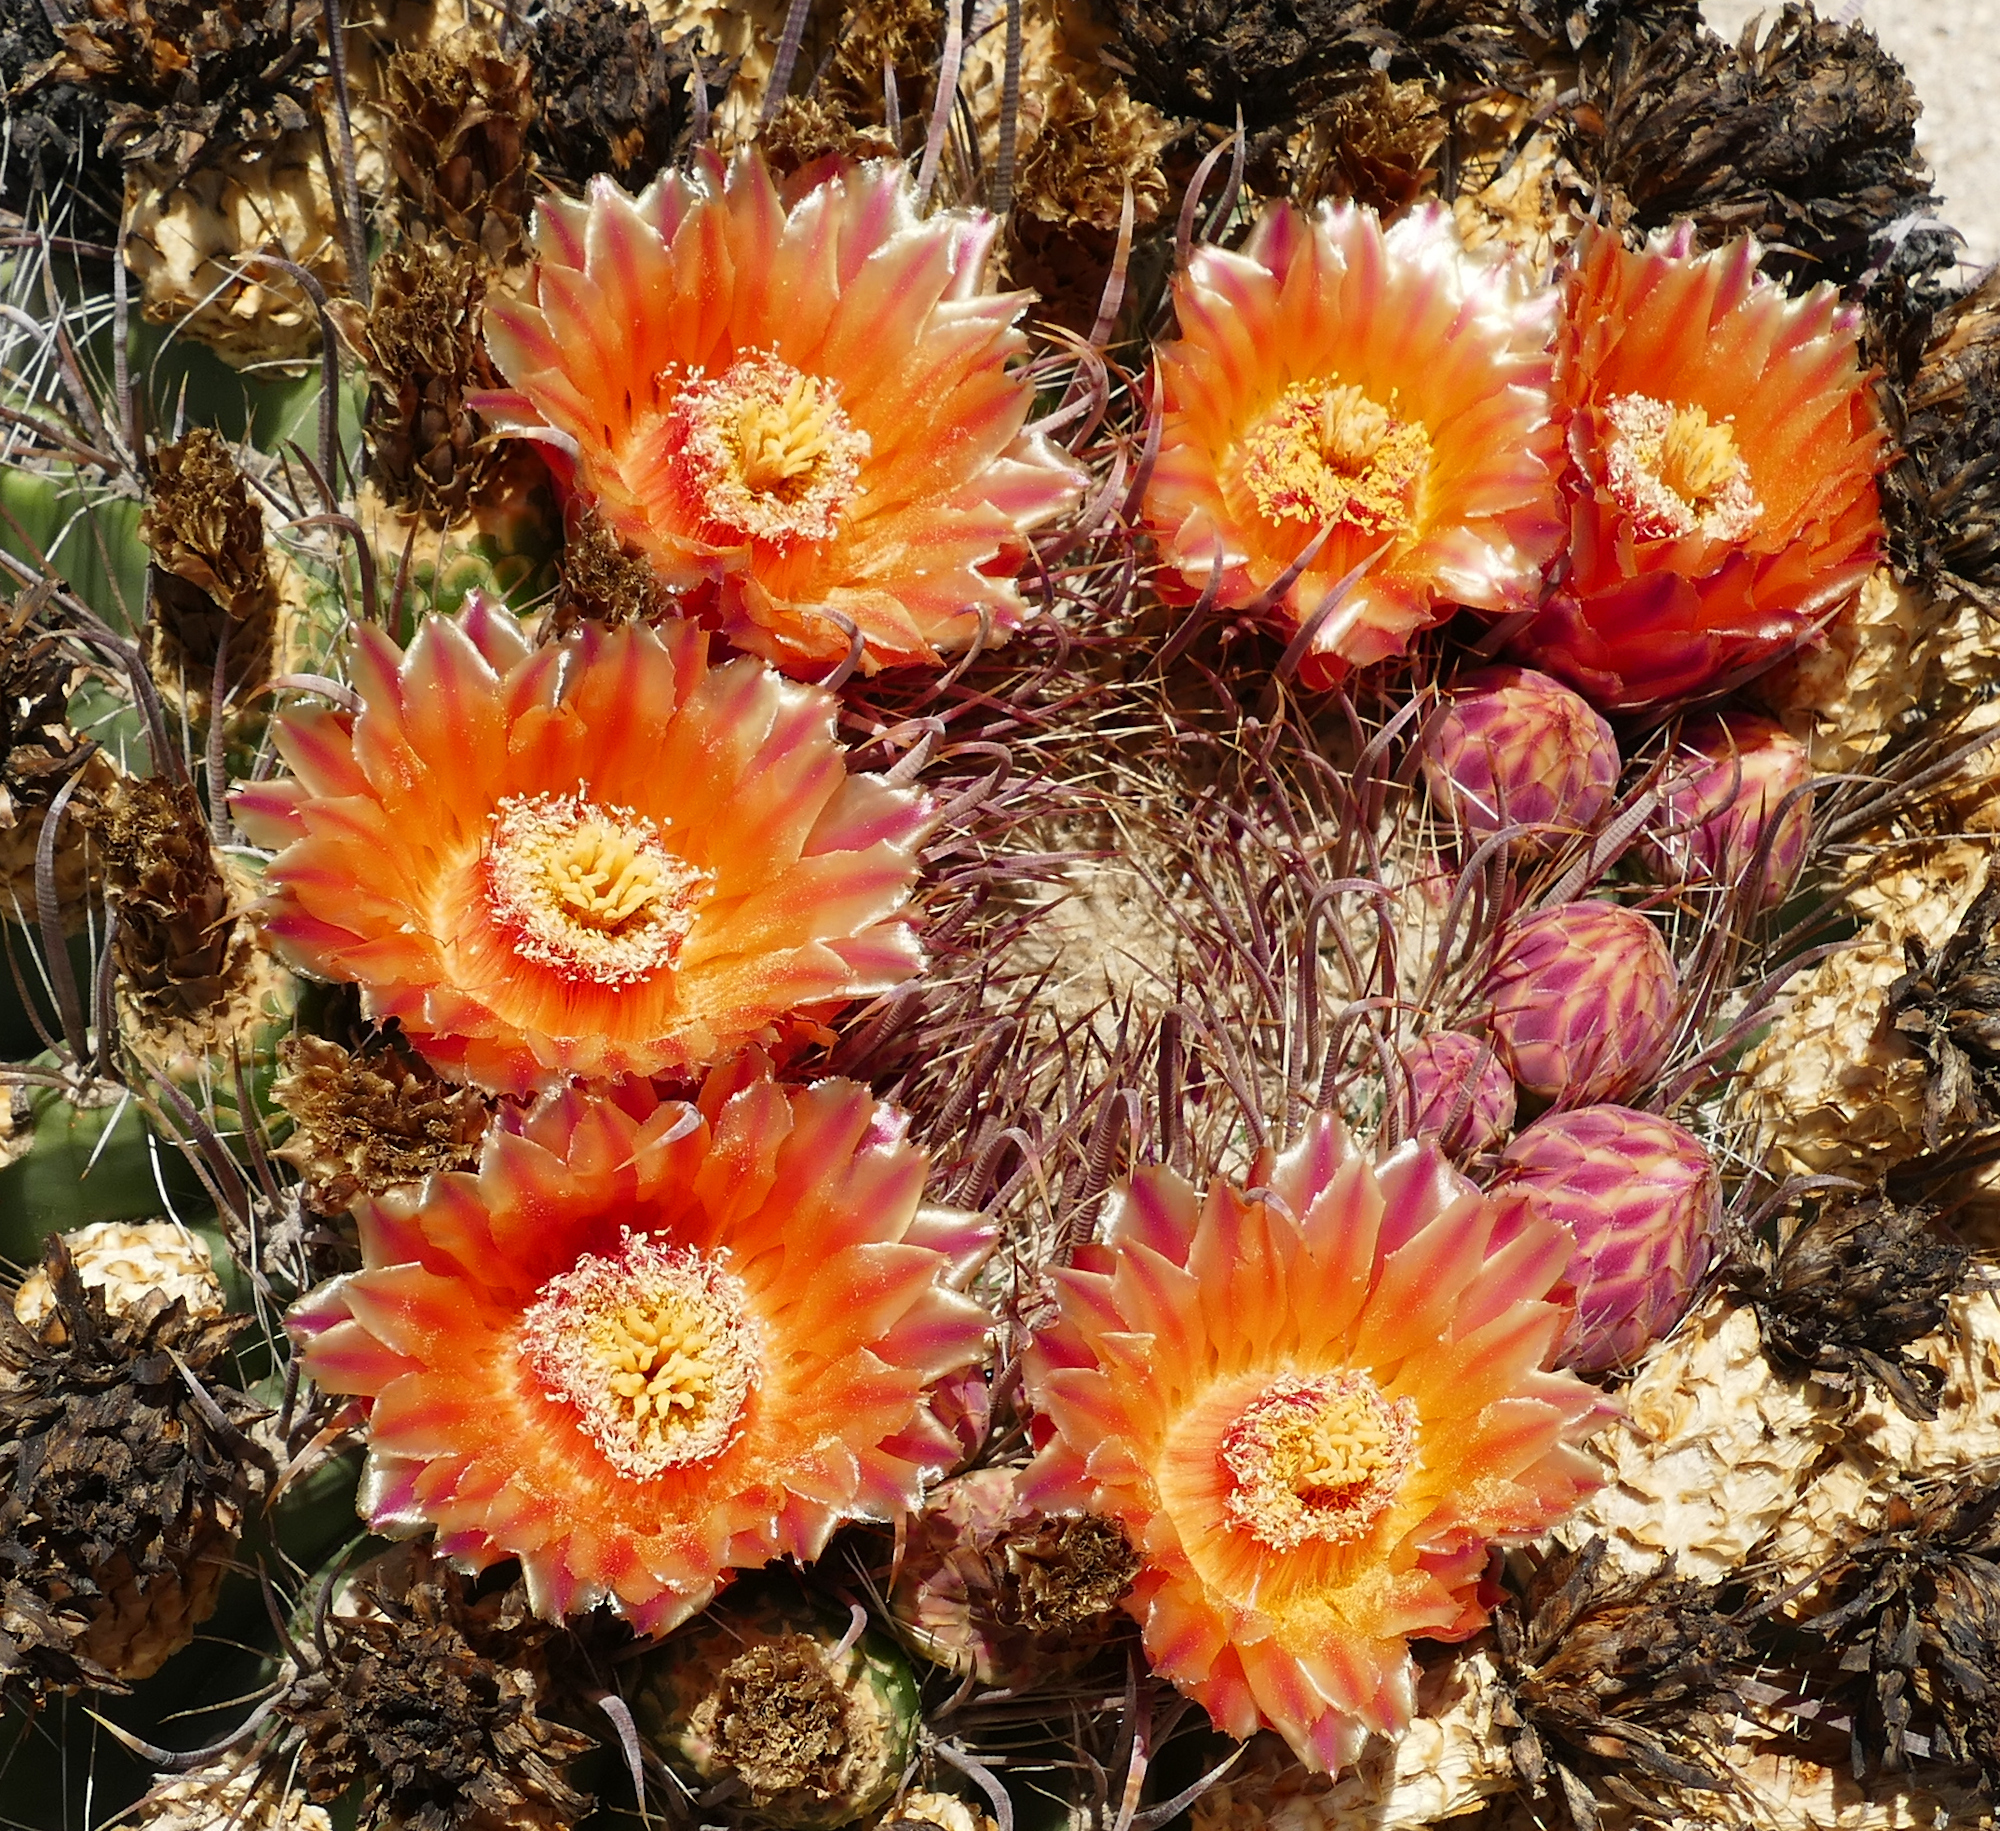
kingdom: Plantae
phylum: Tracheophyta
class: Magnoliopsida
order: Caryophyllales
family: Cactaceae
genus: Ferocactus
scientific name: Ferocactus wislizeni
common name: Candy barrel cactus
